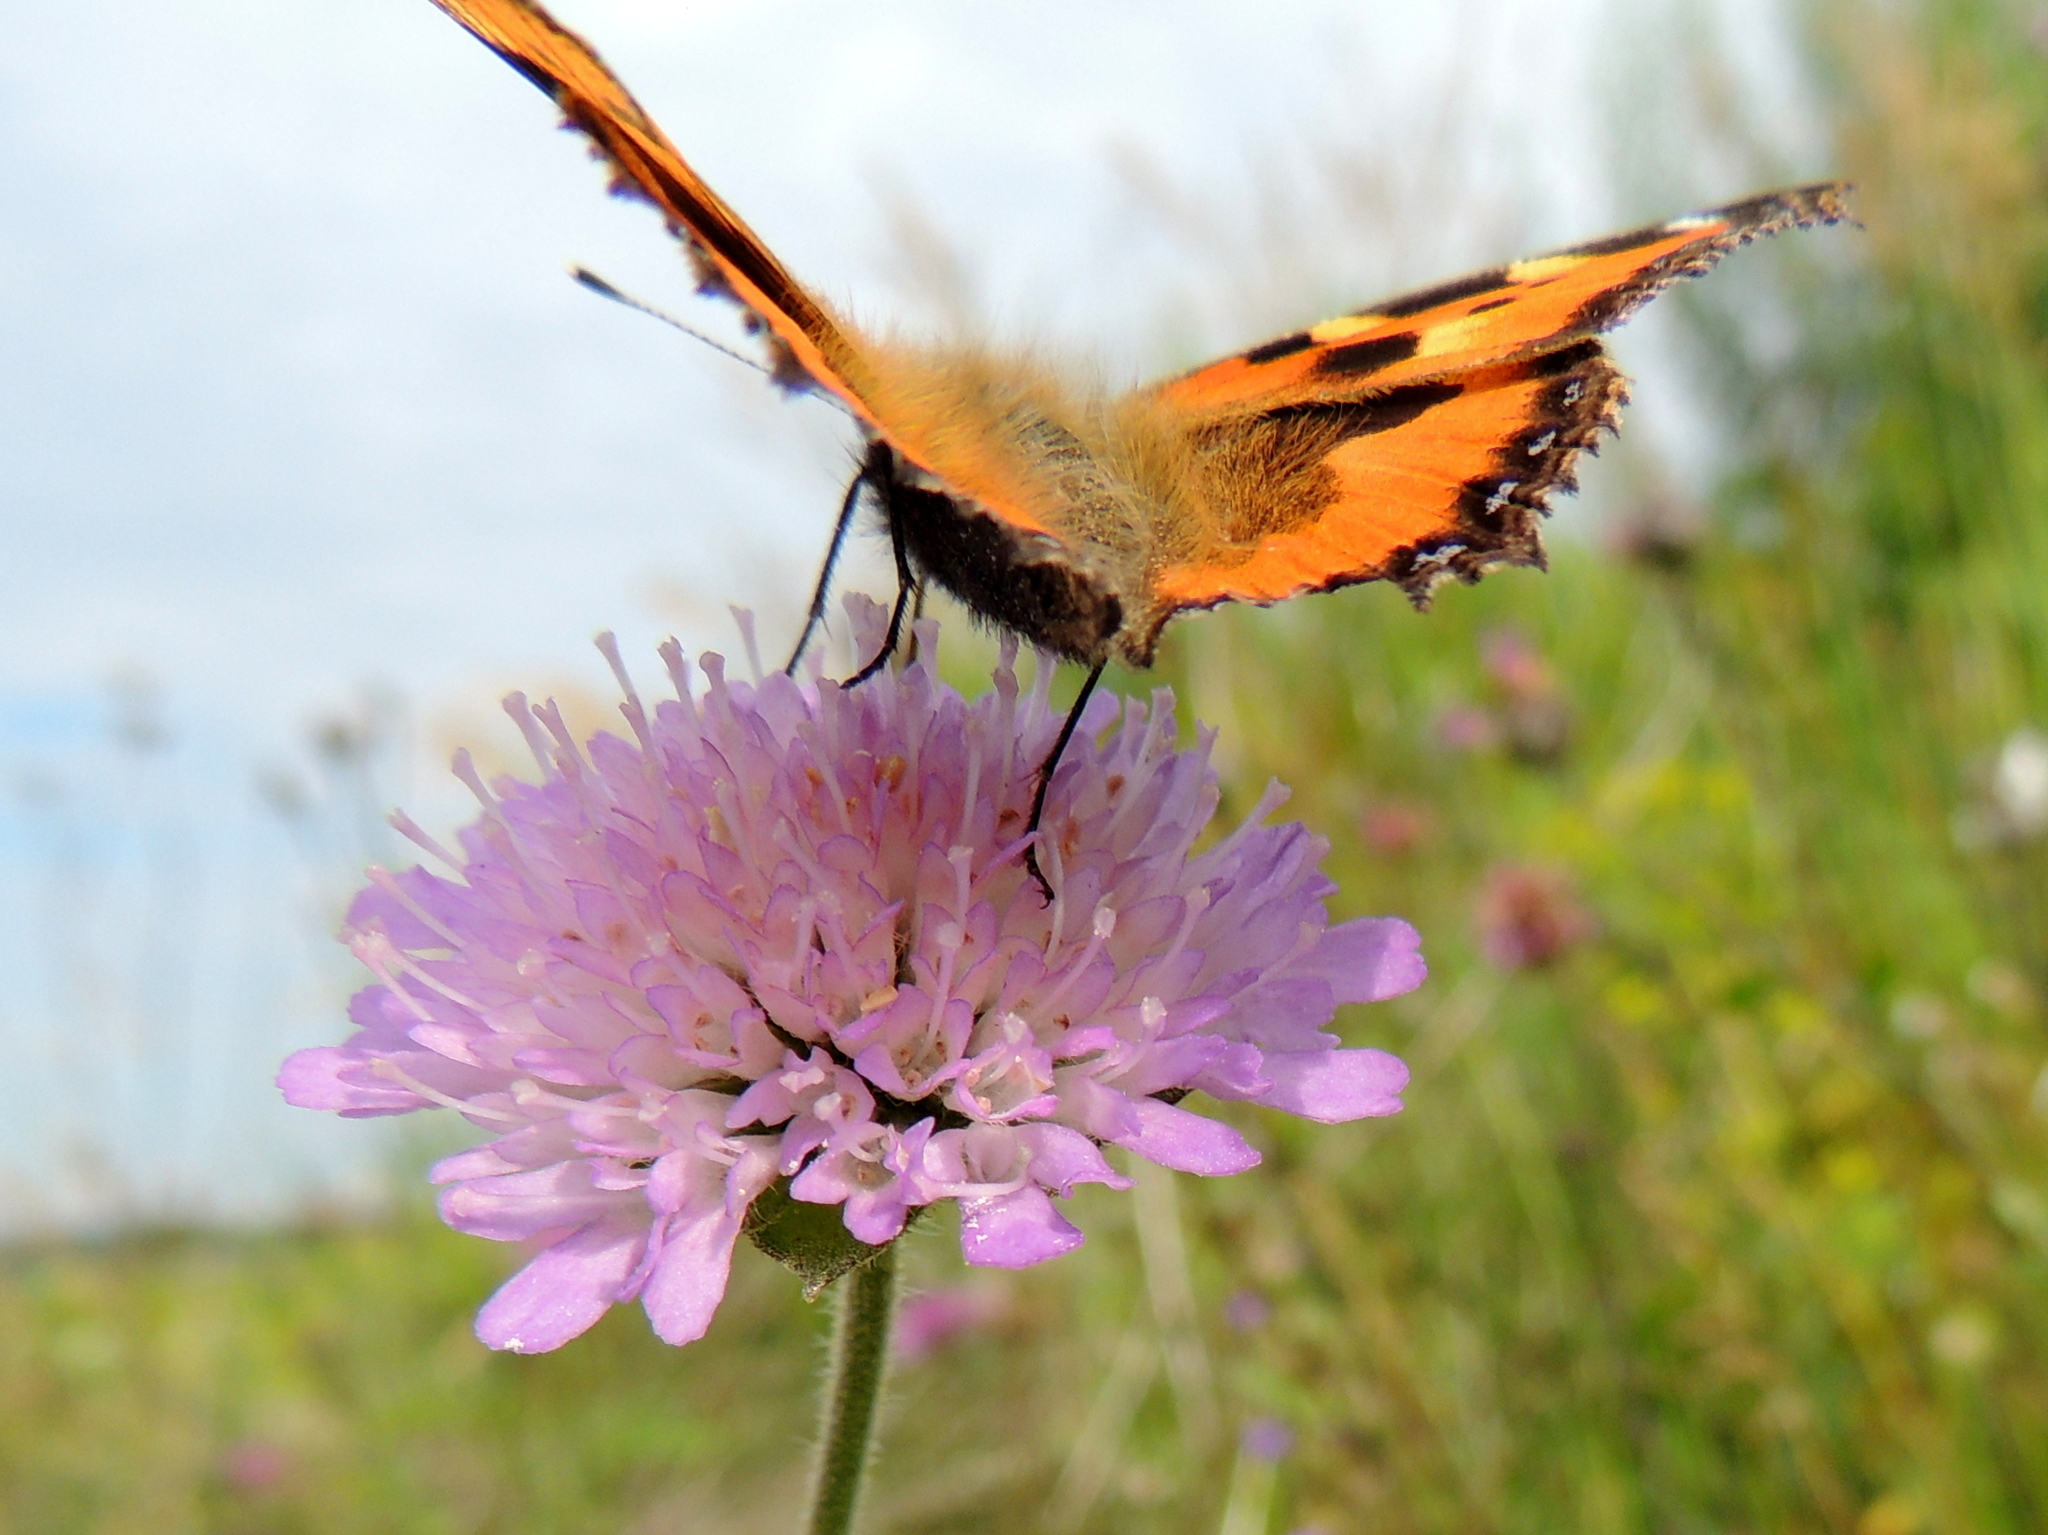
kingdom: Animalia
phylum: Arthropoda
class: Insecta
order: Lepidoptera
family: Nymphalidae
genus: Aglais
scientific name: Aglais urticae
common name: Small tortoiseshell
